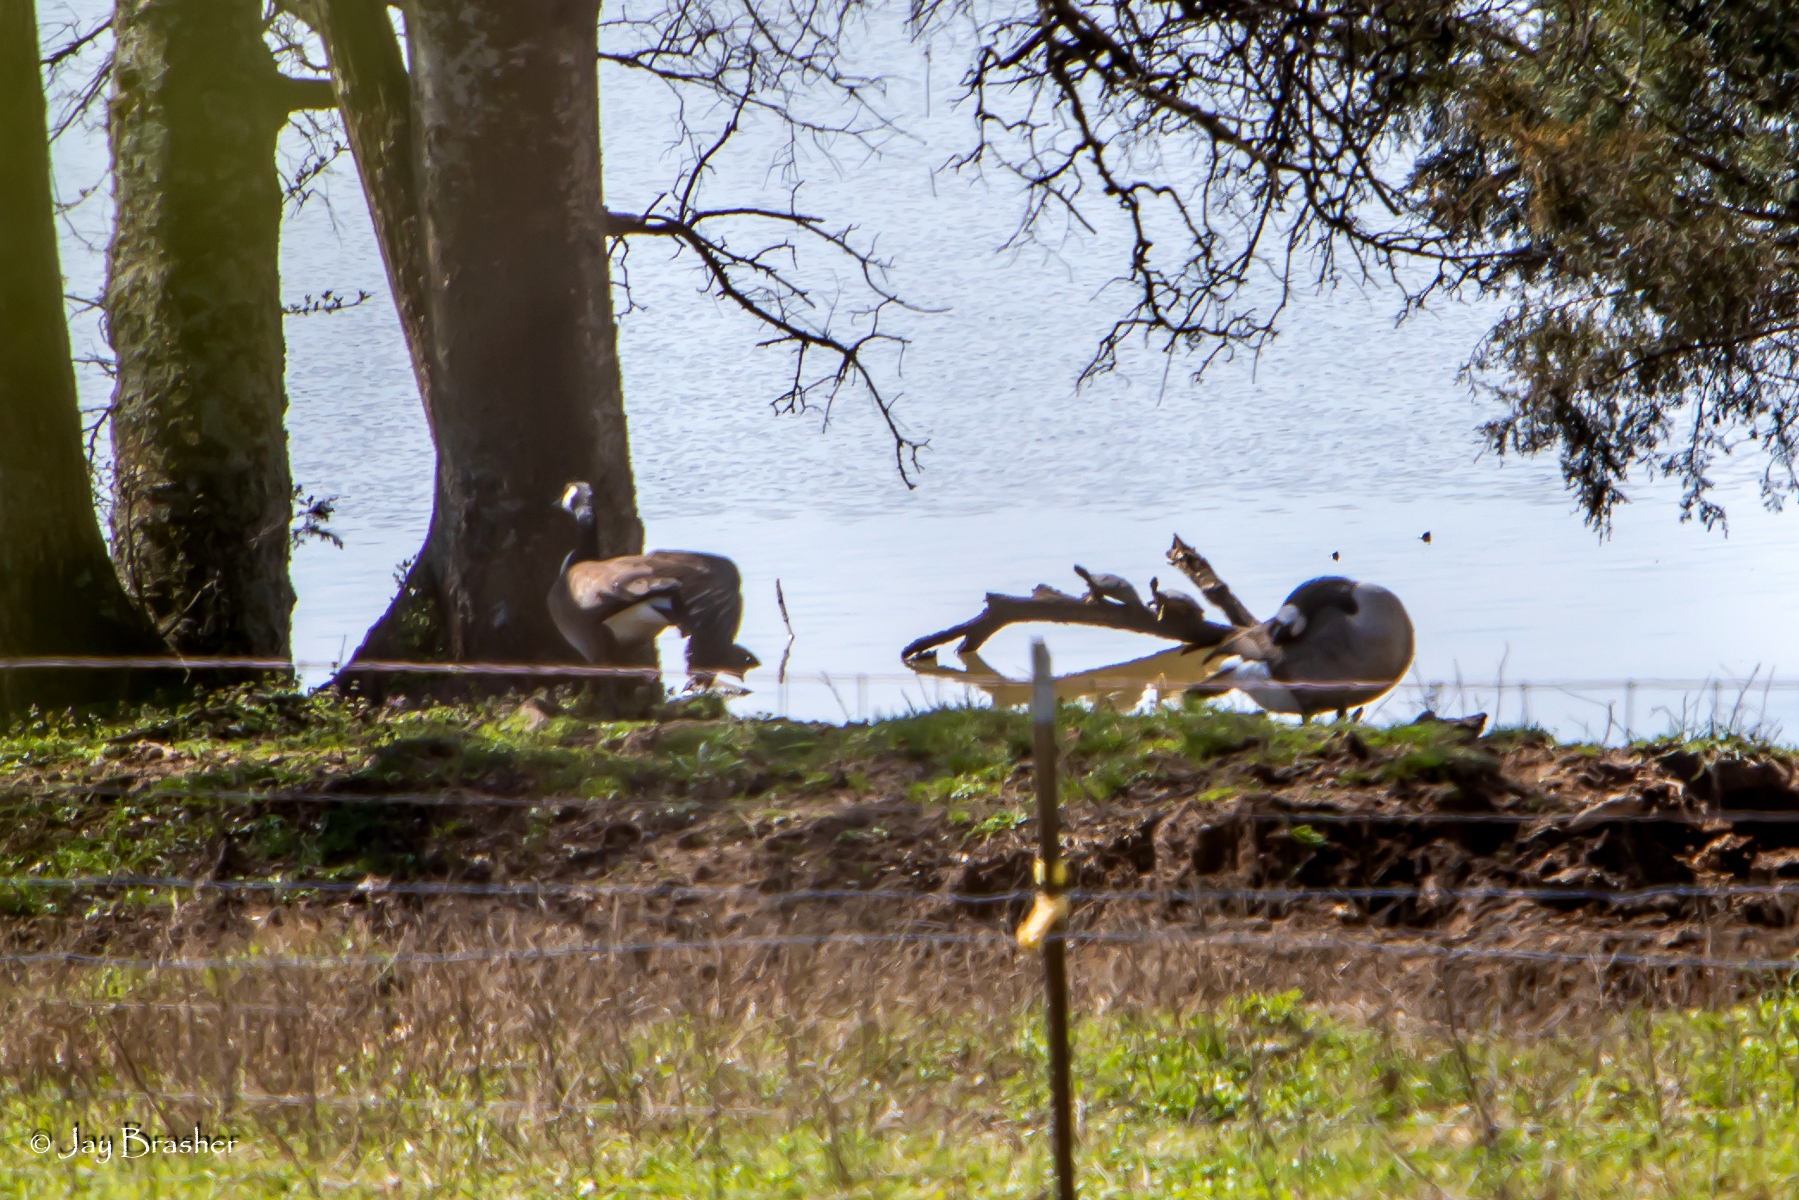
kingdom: Animalia
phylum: Chordata
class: Aves
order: Anseriformes
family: Anatidae
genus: Branta
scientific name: Branta canadensis
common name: Canada goose
